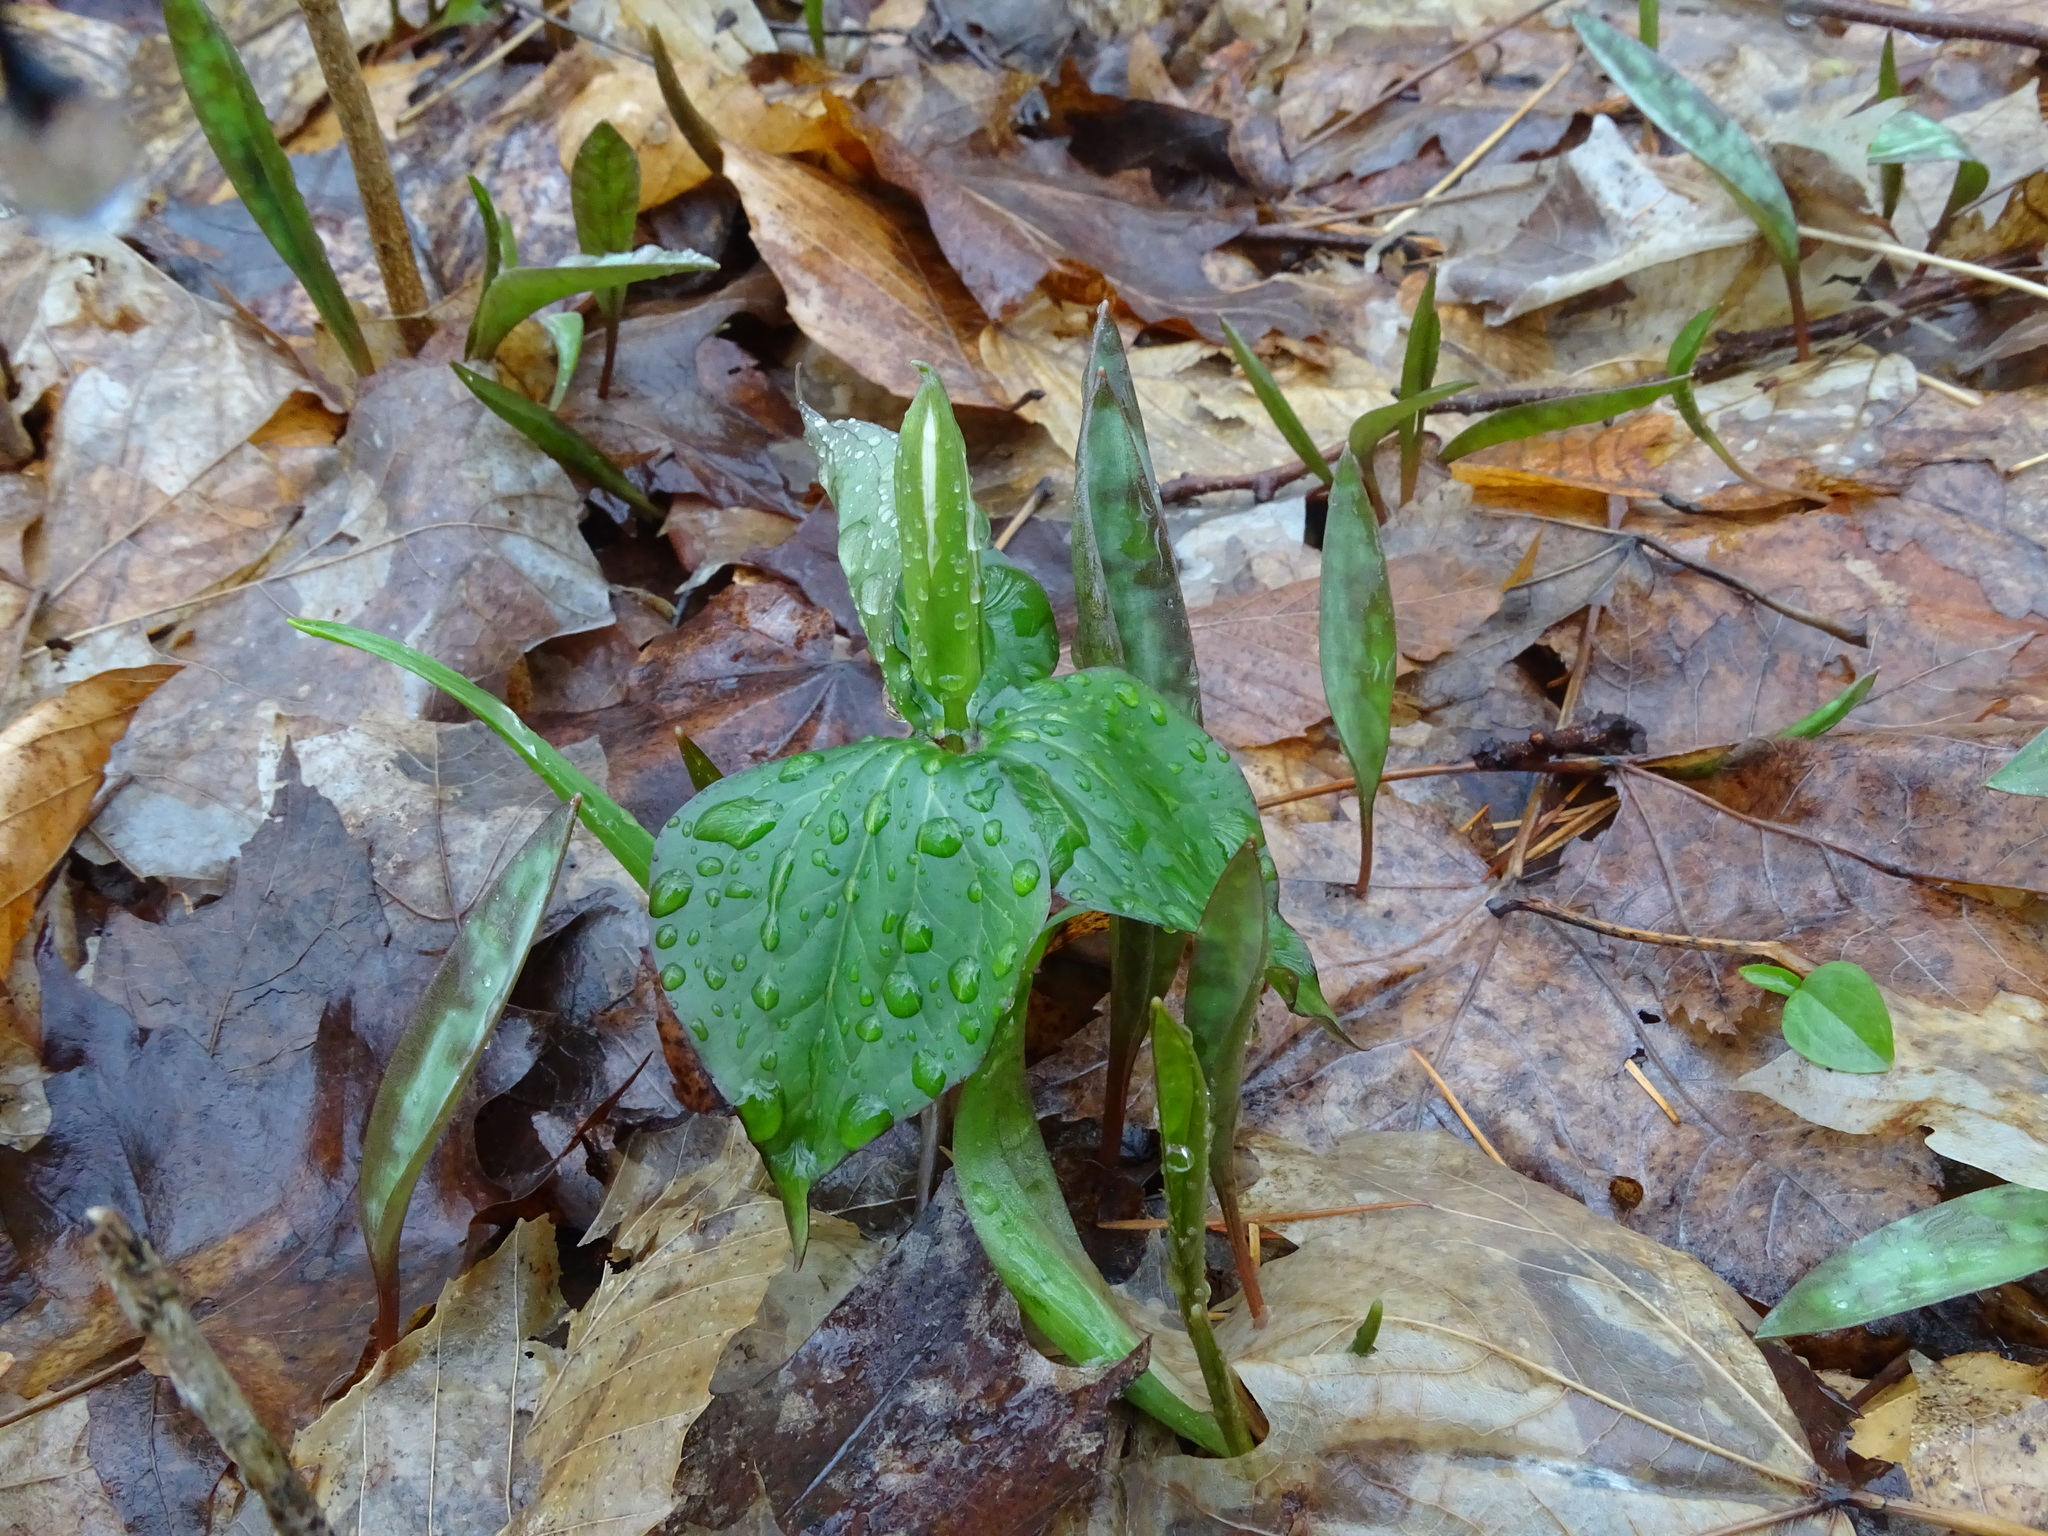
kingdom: Plantae
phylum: Tracheophyta
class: Liliopsida
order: Liliales
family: Melanthiaceae
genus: Trillium
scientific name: Trillium grandiflorum
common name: Great white trillium
